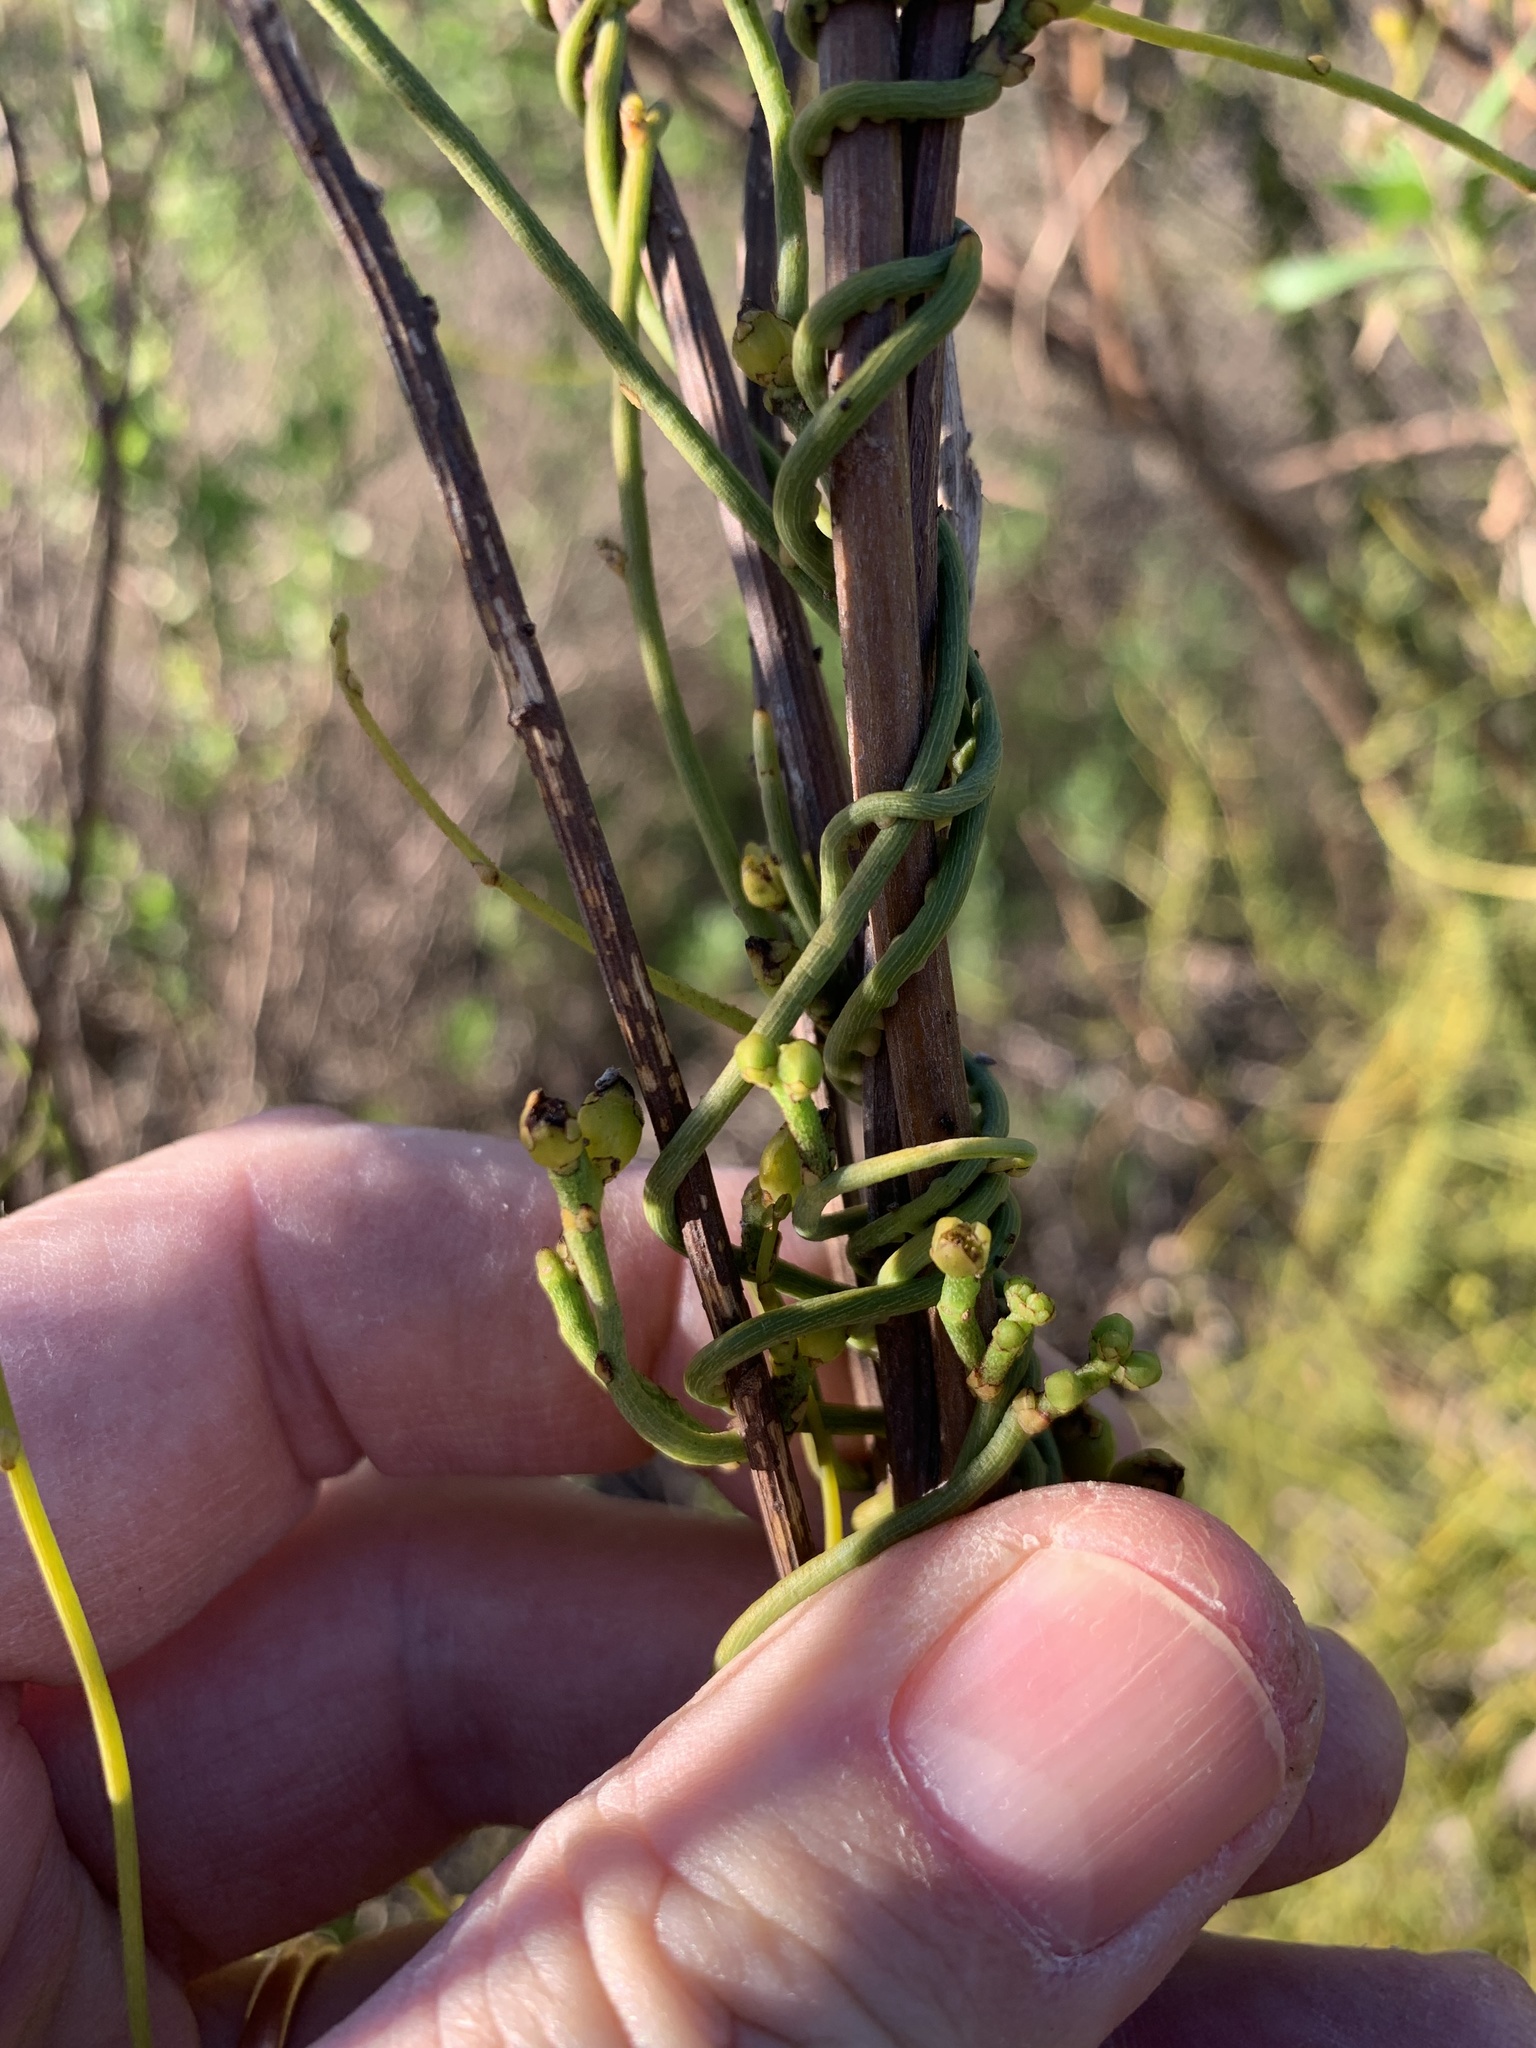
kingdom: Plantae
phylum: Tracheophyta
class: Magnoliopsida
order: Laurales
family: Lauraceae
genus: Cassytha
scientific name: Cassytha ciliolata
